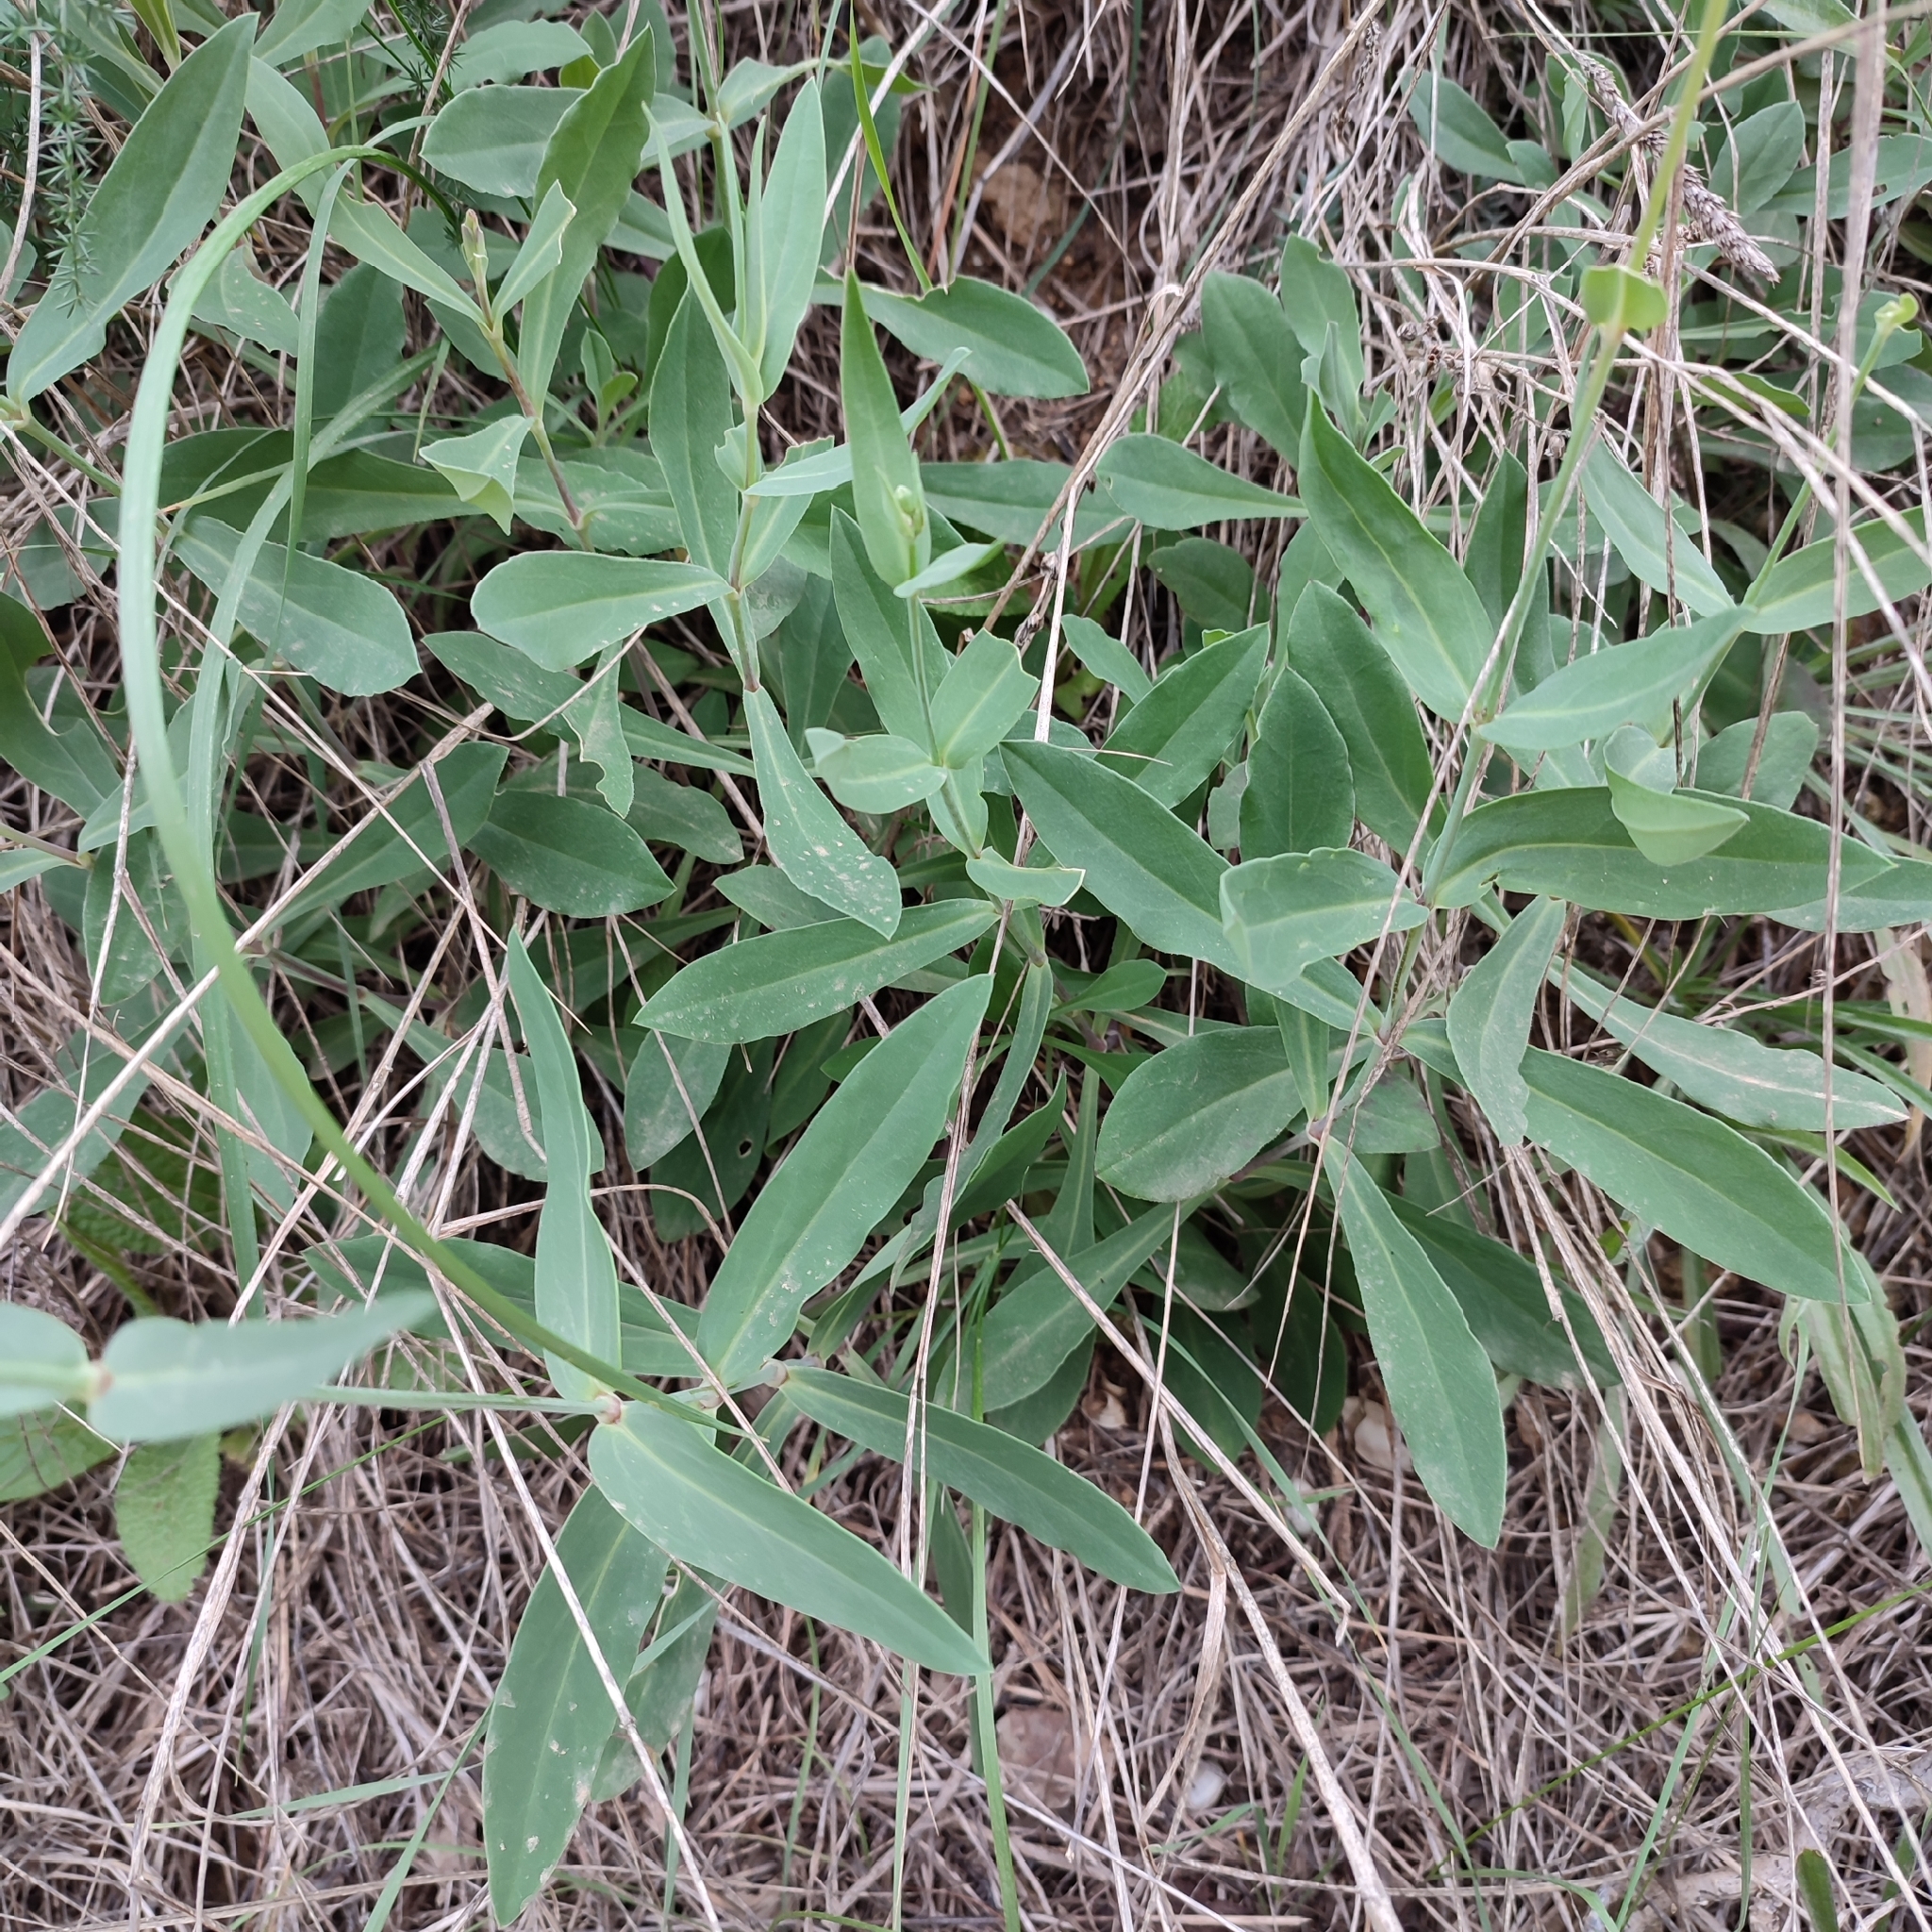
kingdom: Plantae
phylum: Tracheophyta
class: Magnoliopsida
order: Caryophyllales
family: Caryophyllaceae
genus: Silene
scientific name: Silene vulgaris
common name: Bladder campion
